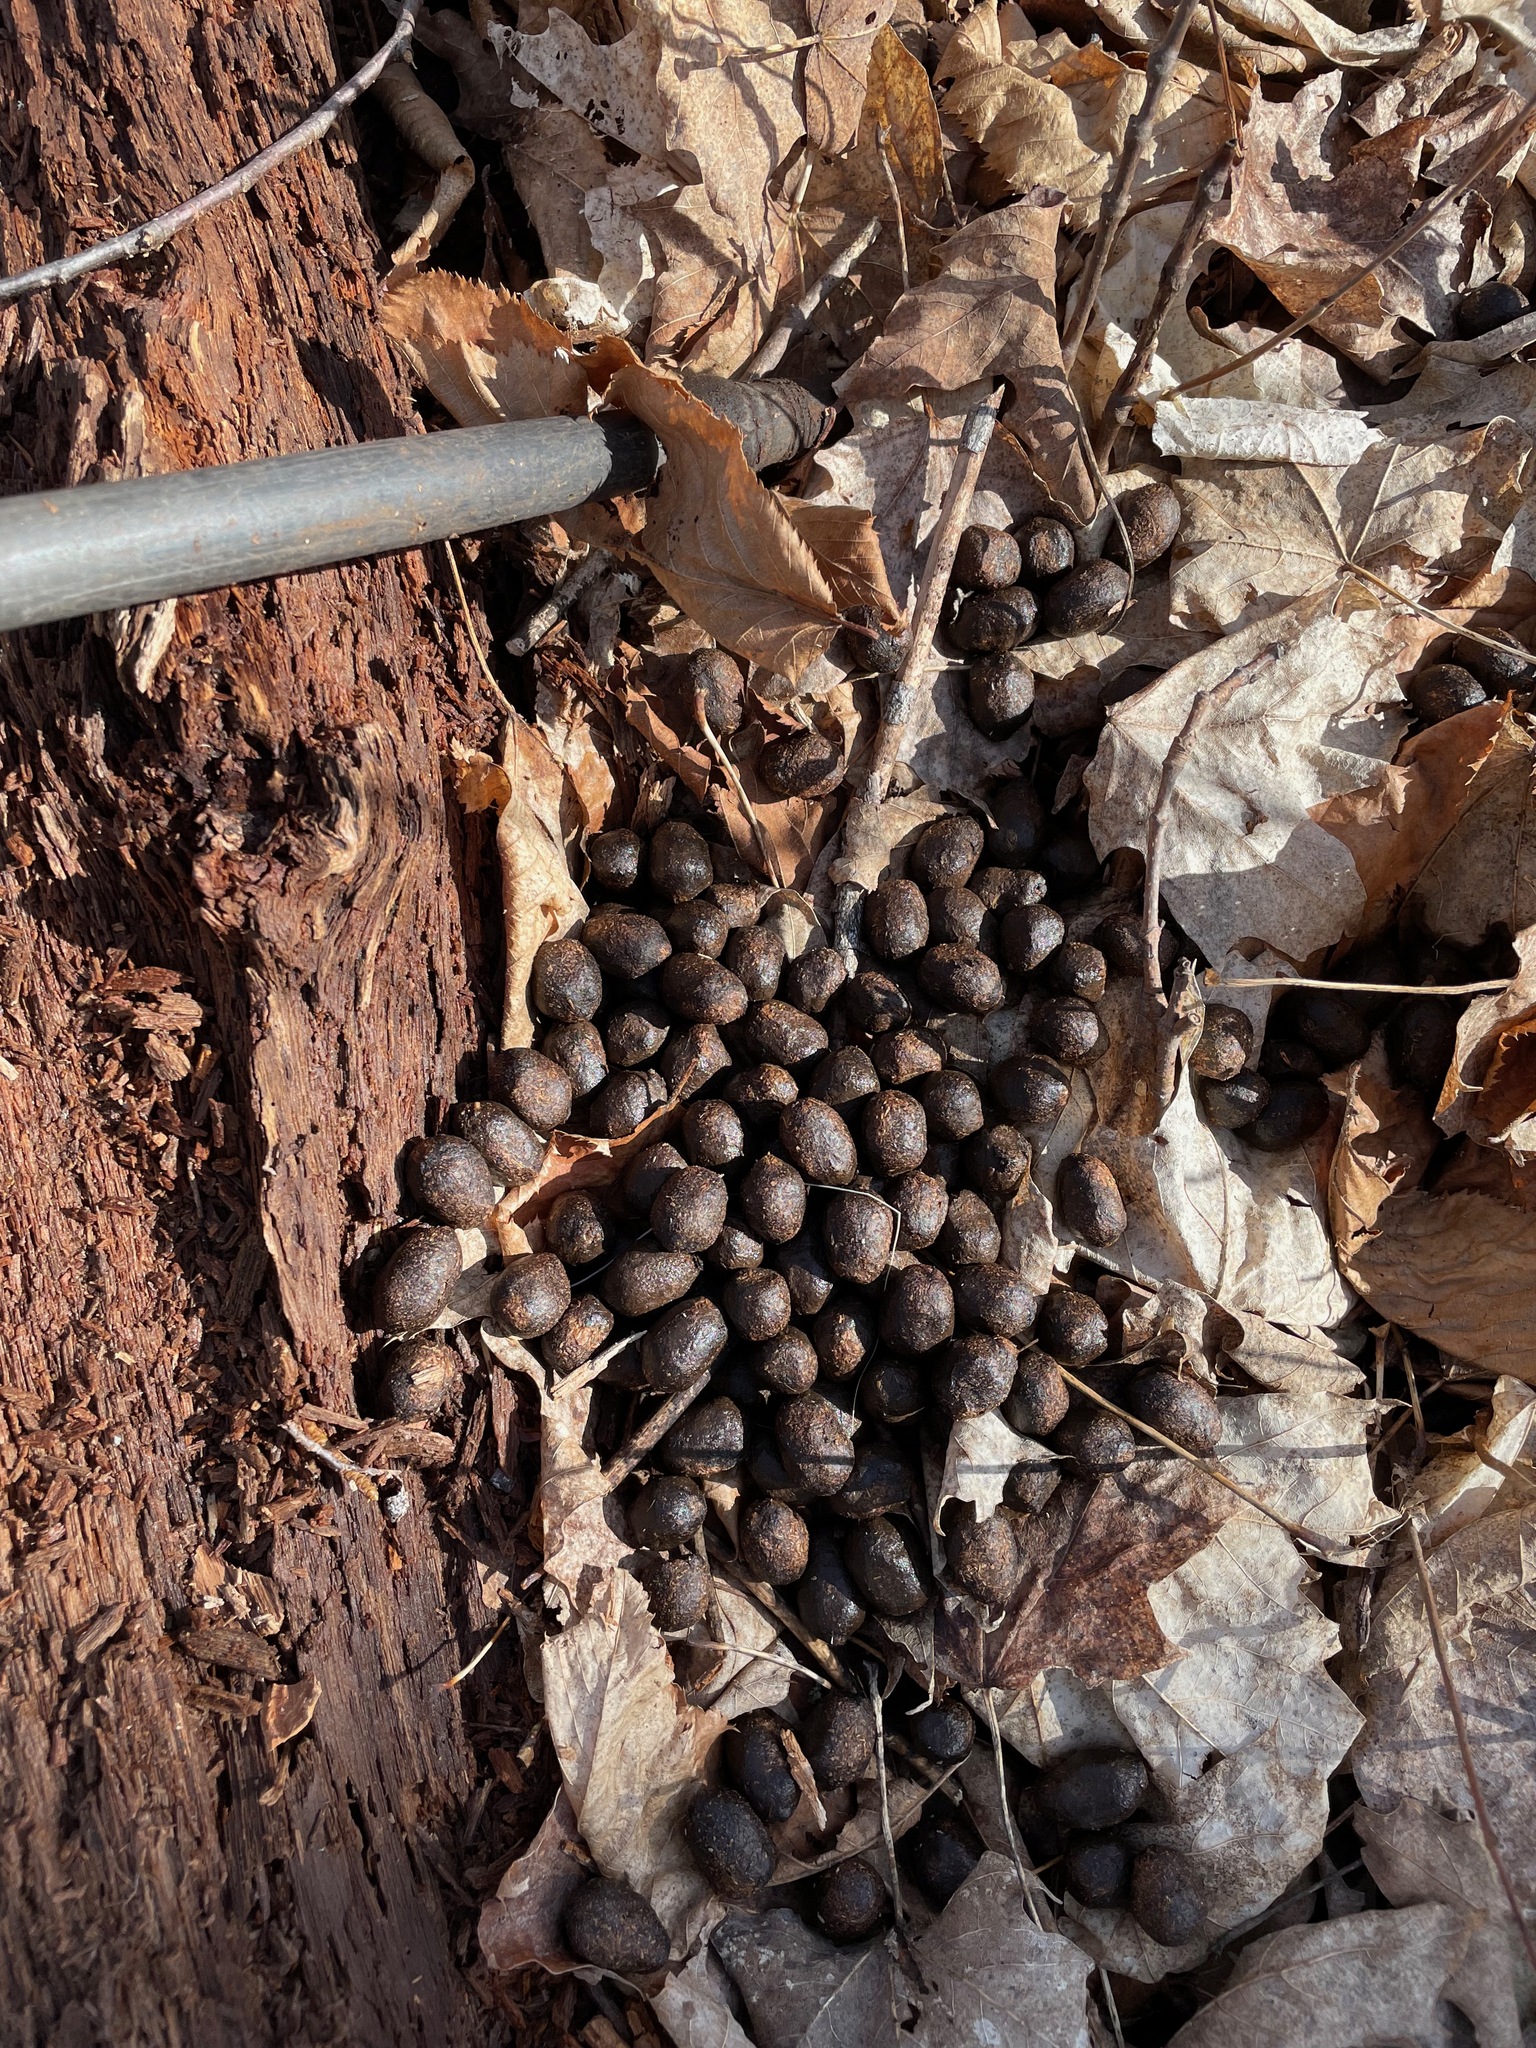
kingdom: Animalia
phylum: Chordata
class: Mammalia
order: Artiodactyla
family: Cervidae
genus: Odocoileus
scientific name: Odocoileus virginianus
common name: White-tailed deer
